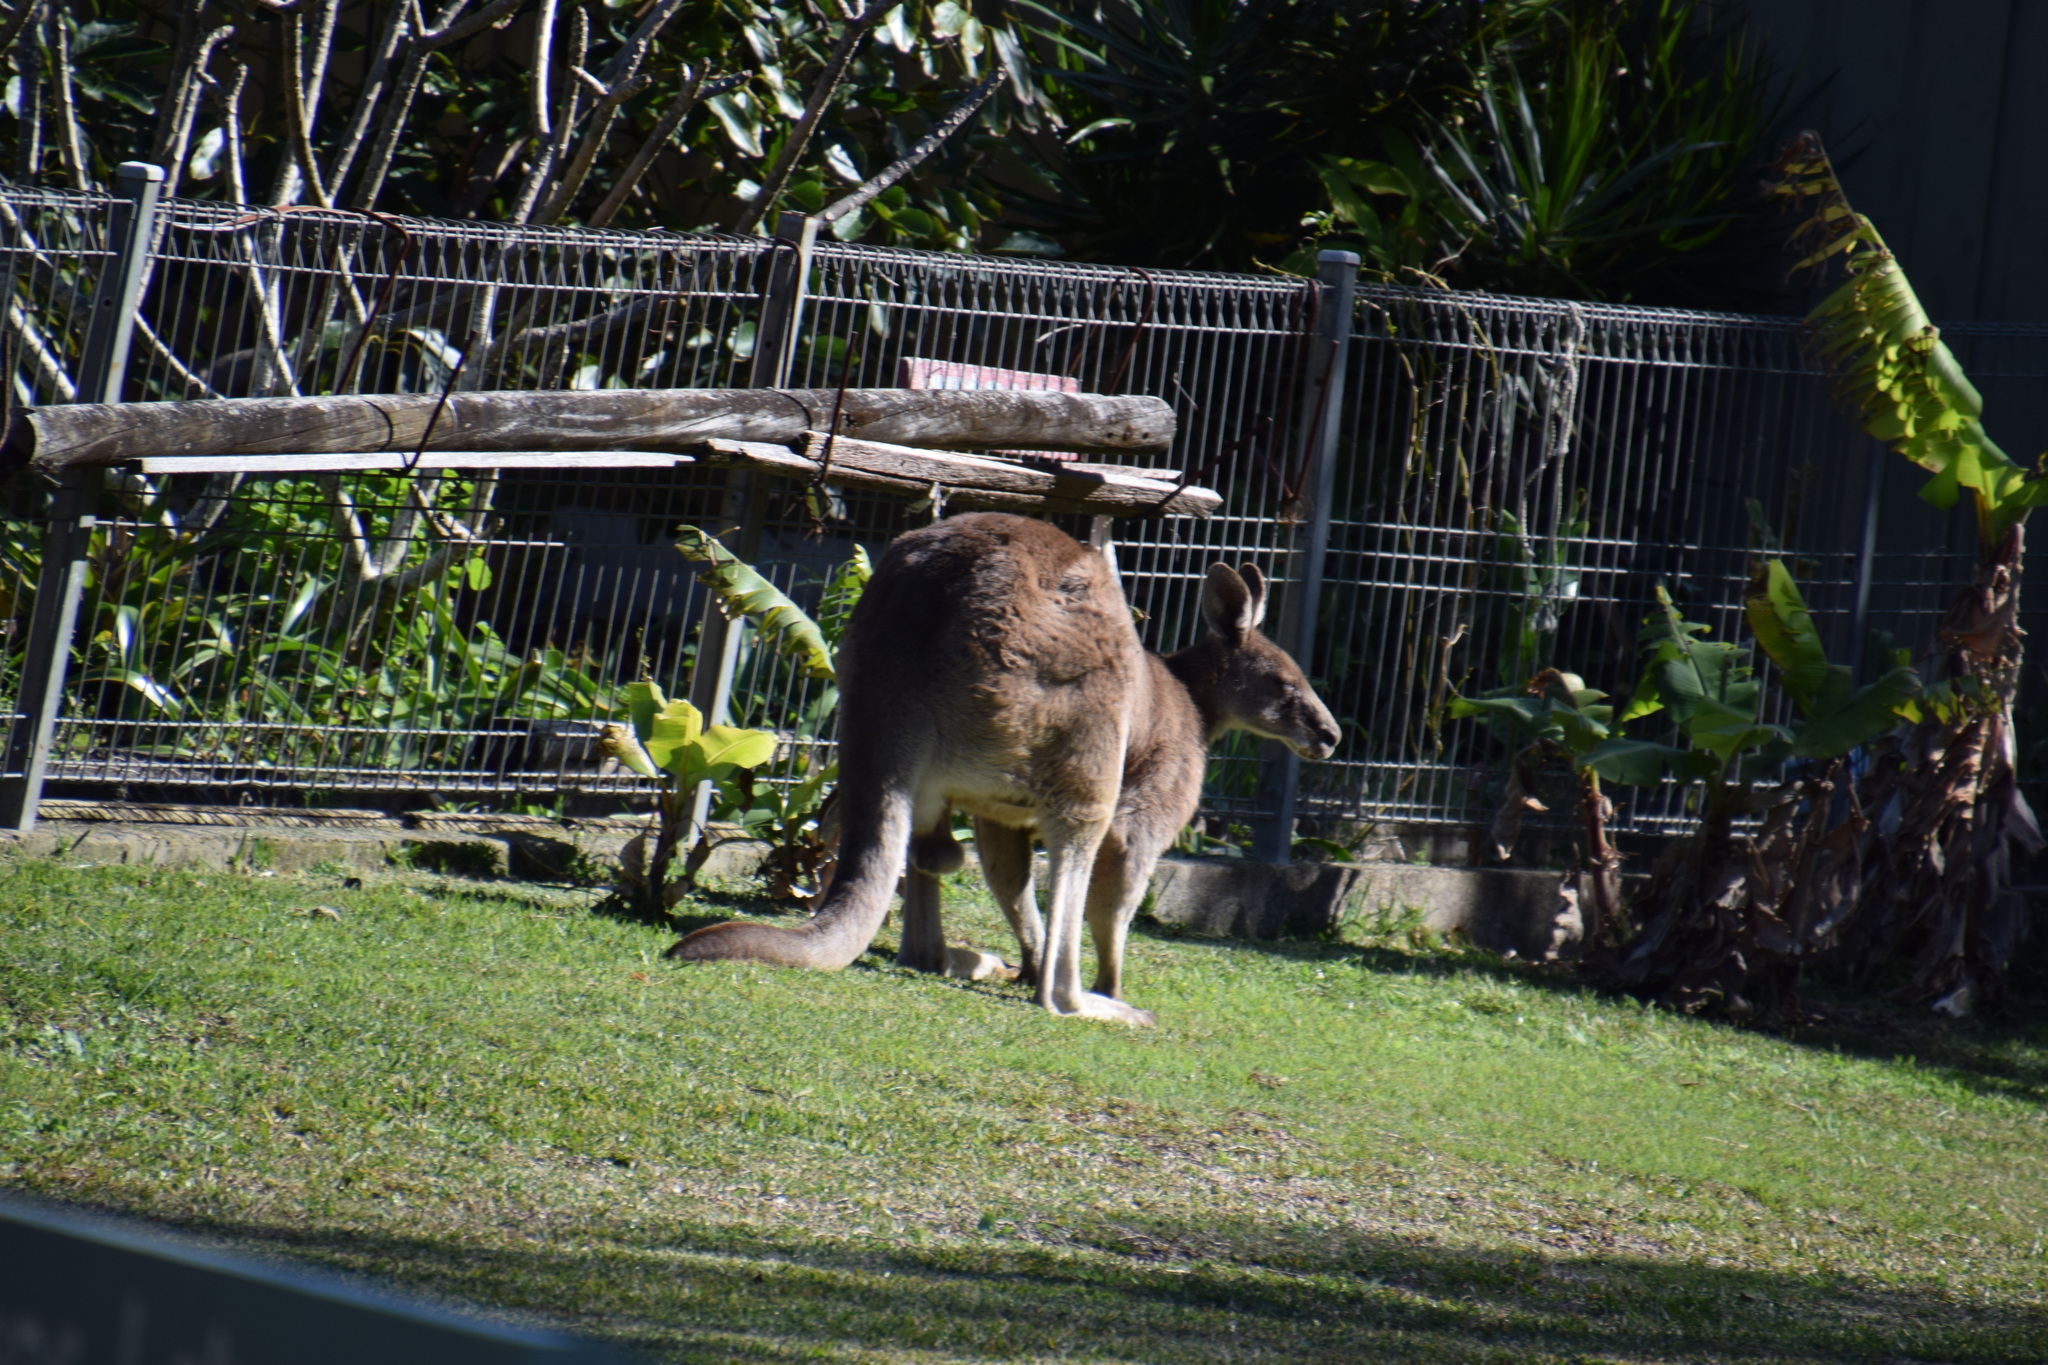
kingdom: Animalia
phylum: Chordata
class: Mammalia
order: Diprotodontia
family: Macropodidae
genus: Macropus
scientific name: Macropus giganteus
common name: Eastern grey kangaroo
